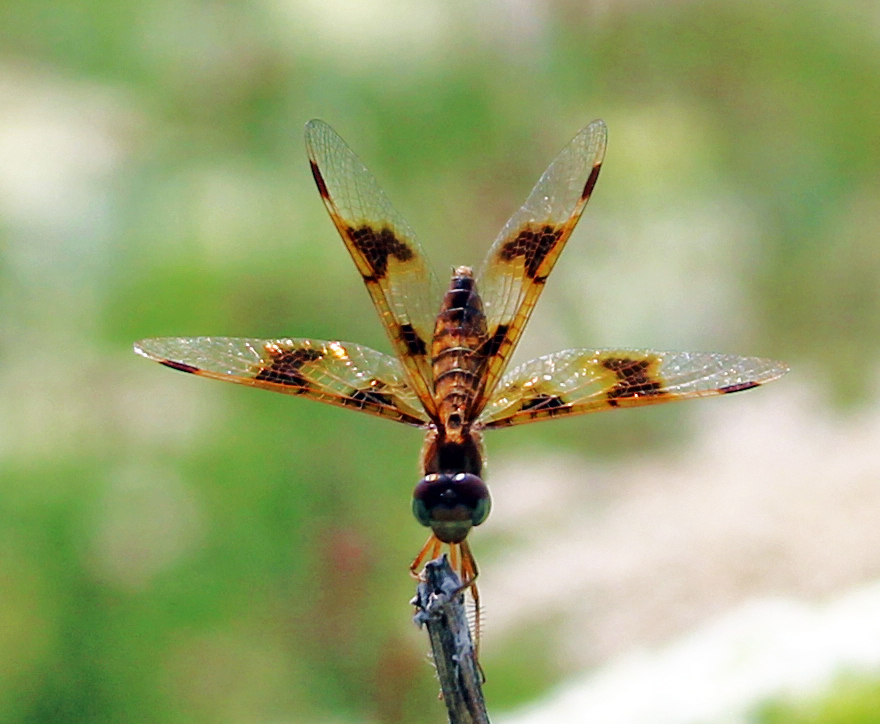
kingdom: Animalia
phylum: Arthropoda
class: Insecta
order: Odonata
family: Libellulidae
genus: Perithemis
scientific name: Perithemis tenera
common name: Eastern amberwing
